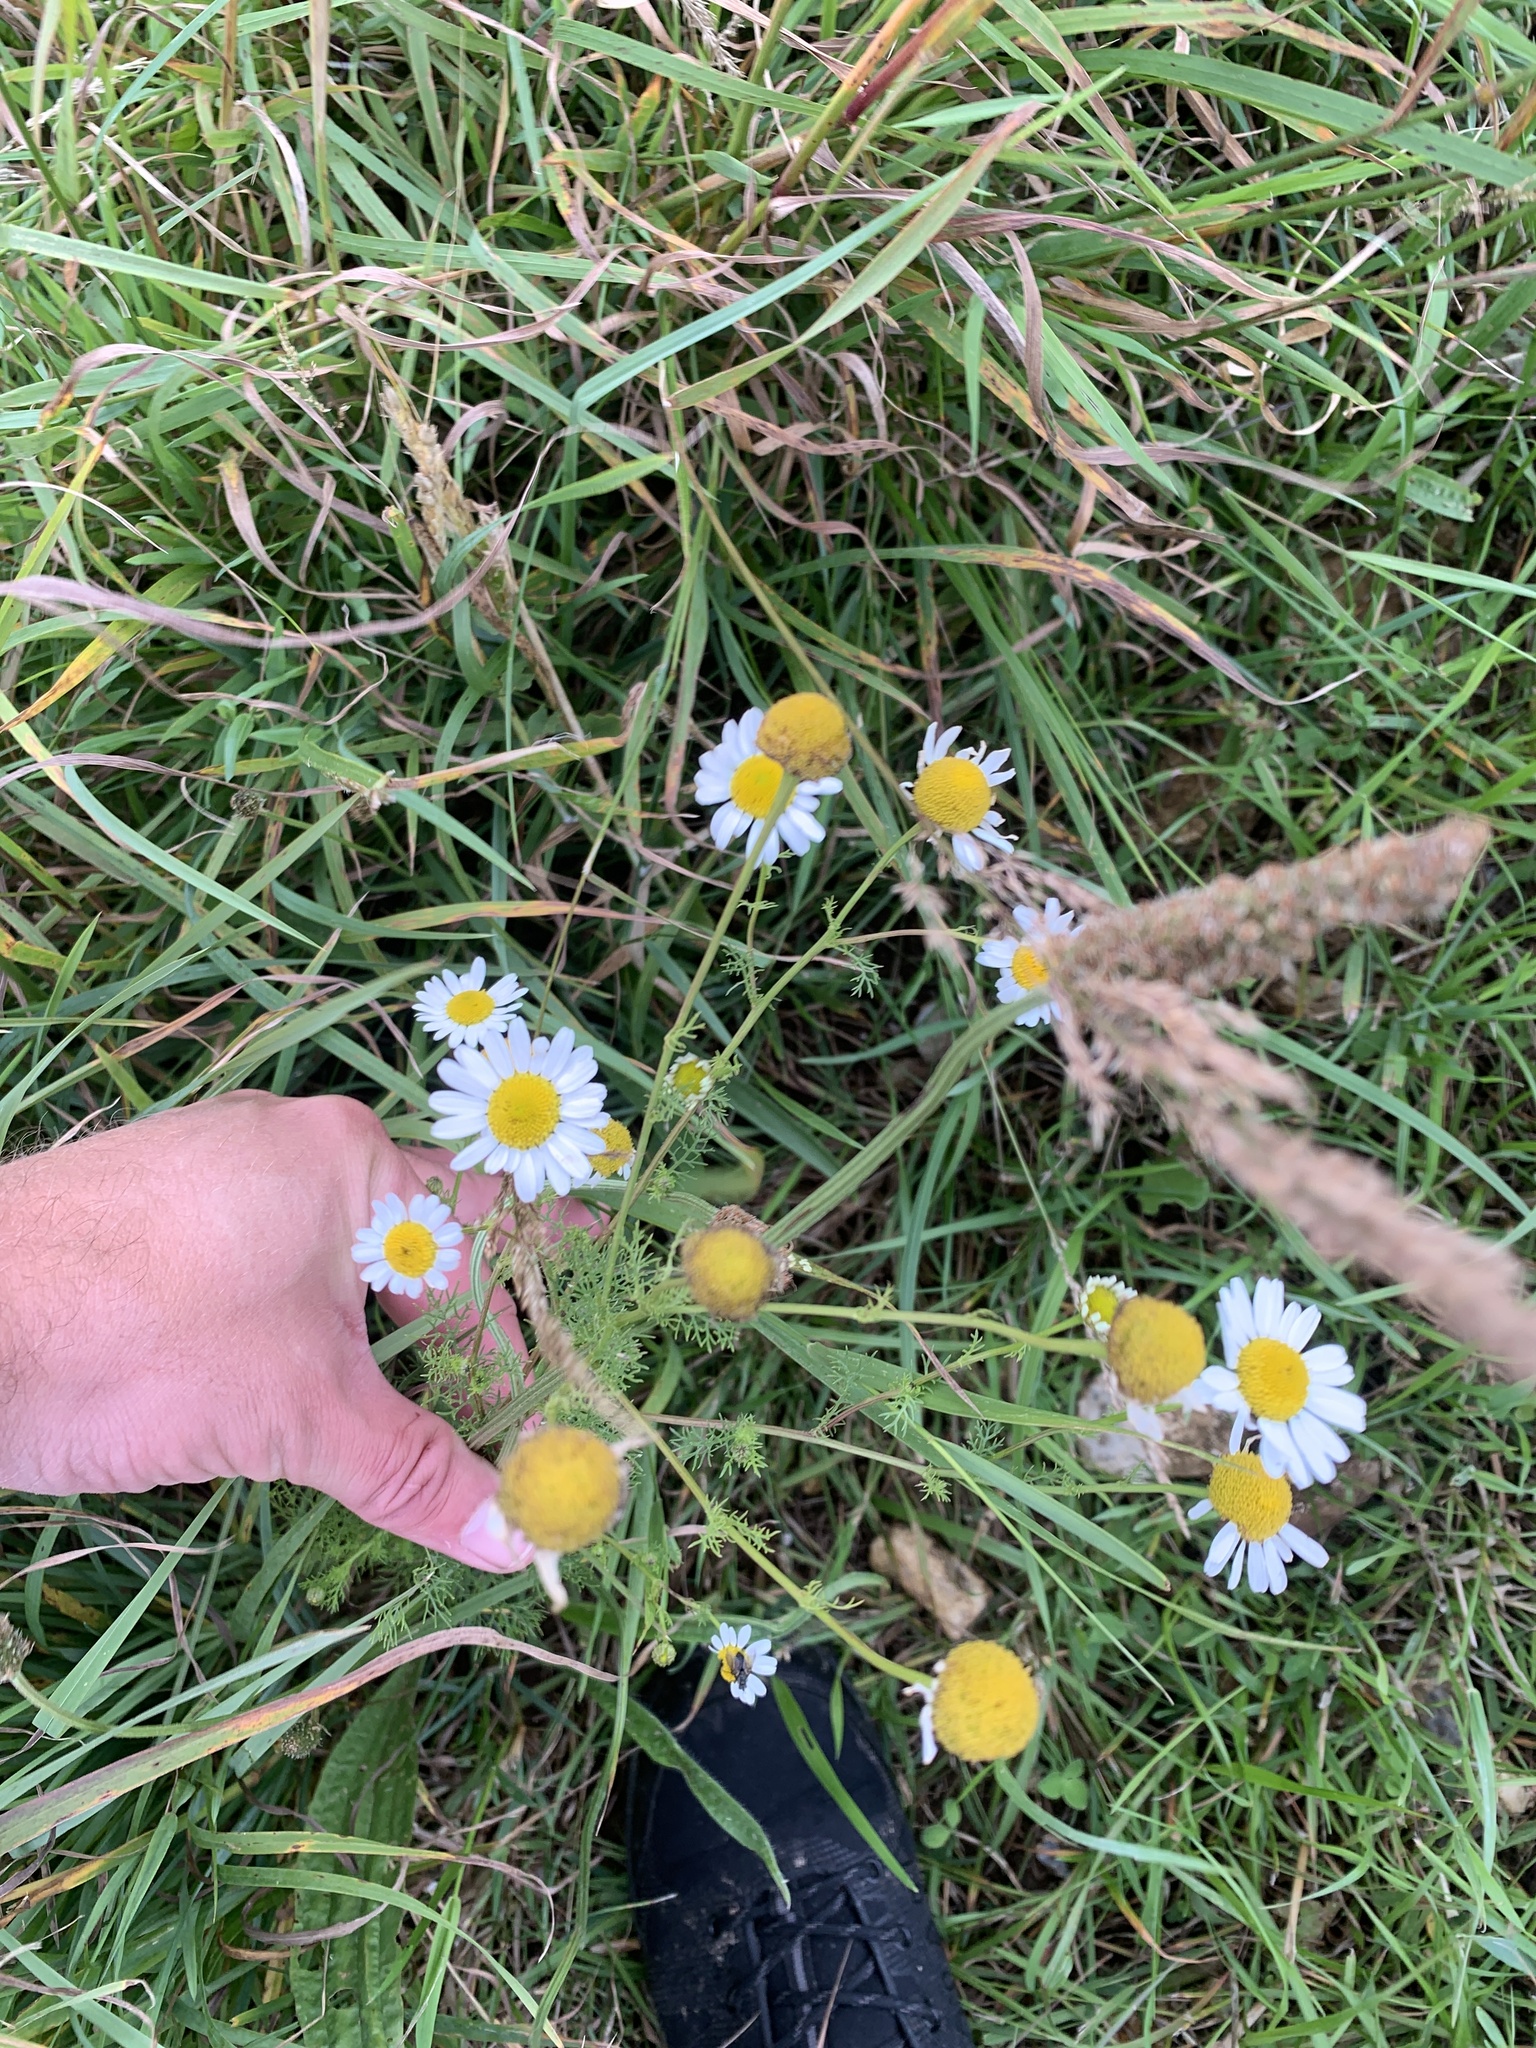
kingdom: Plantae
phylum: Tracheophyta
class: Magnoliopsida
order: Asterales
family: Asteraceae
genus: Tripleurospermum
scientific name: Tripleurospermum inodorum
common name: Scentless mayweed
